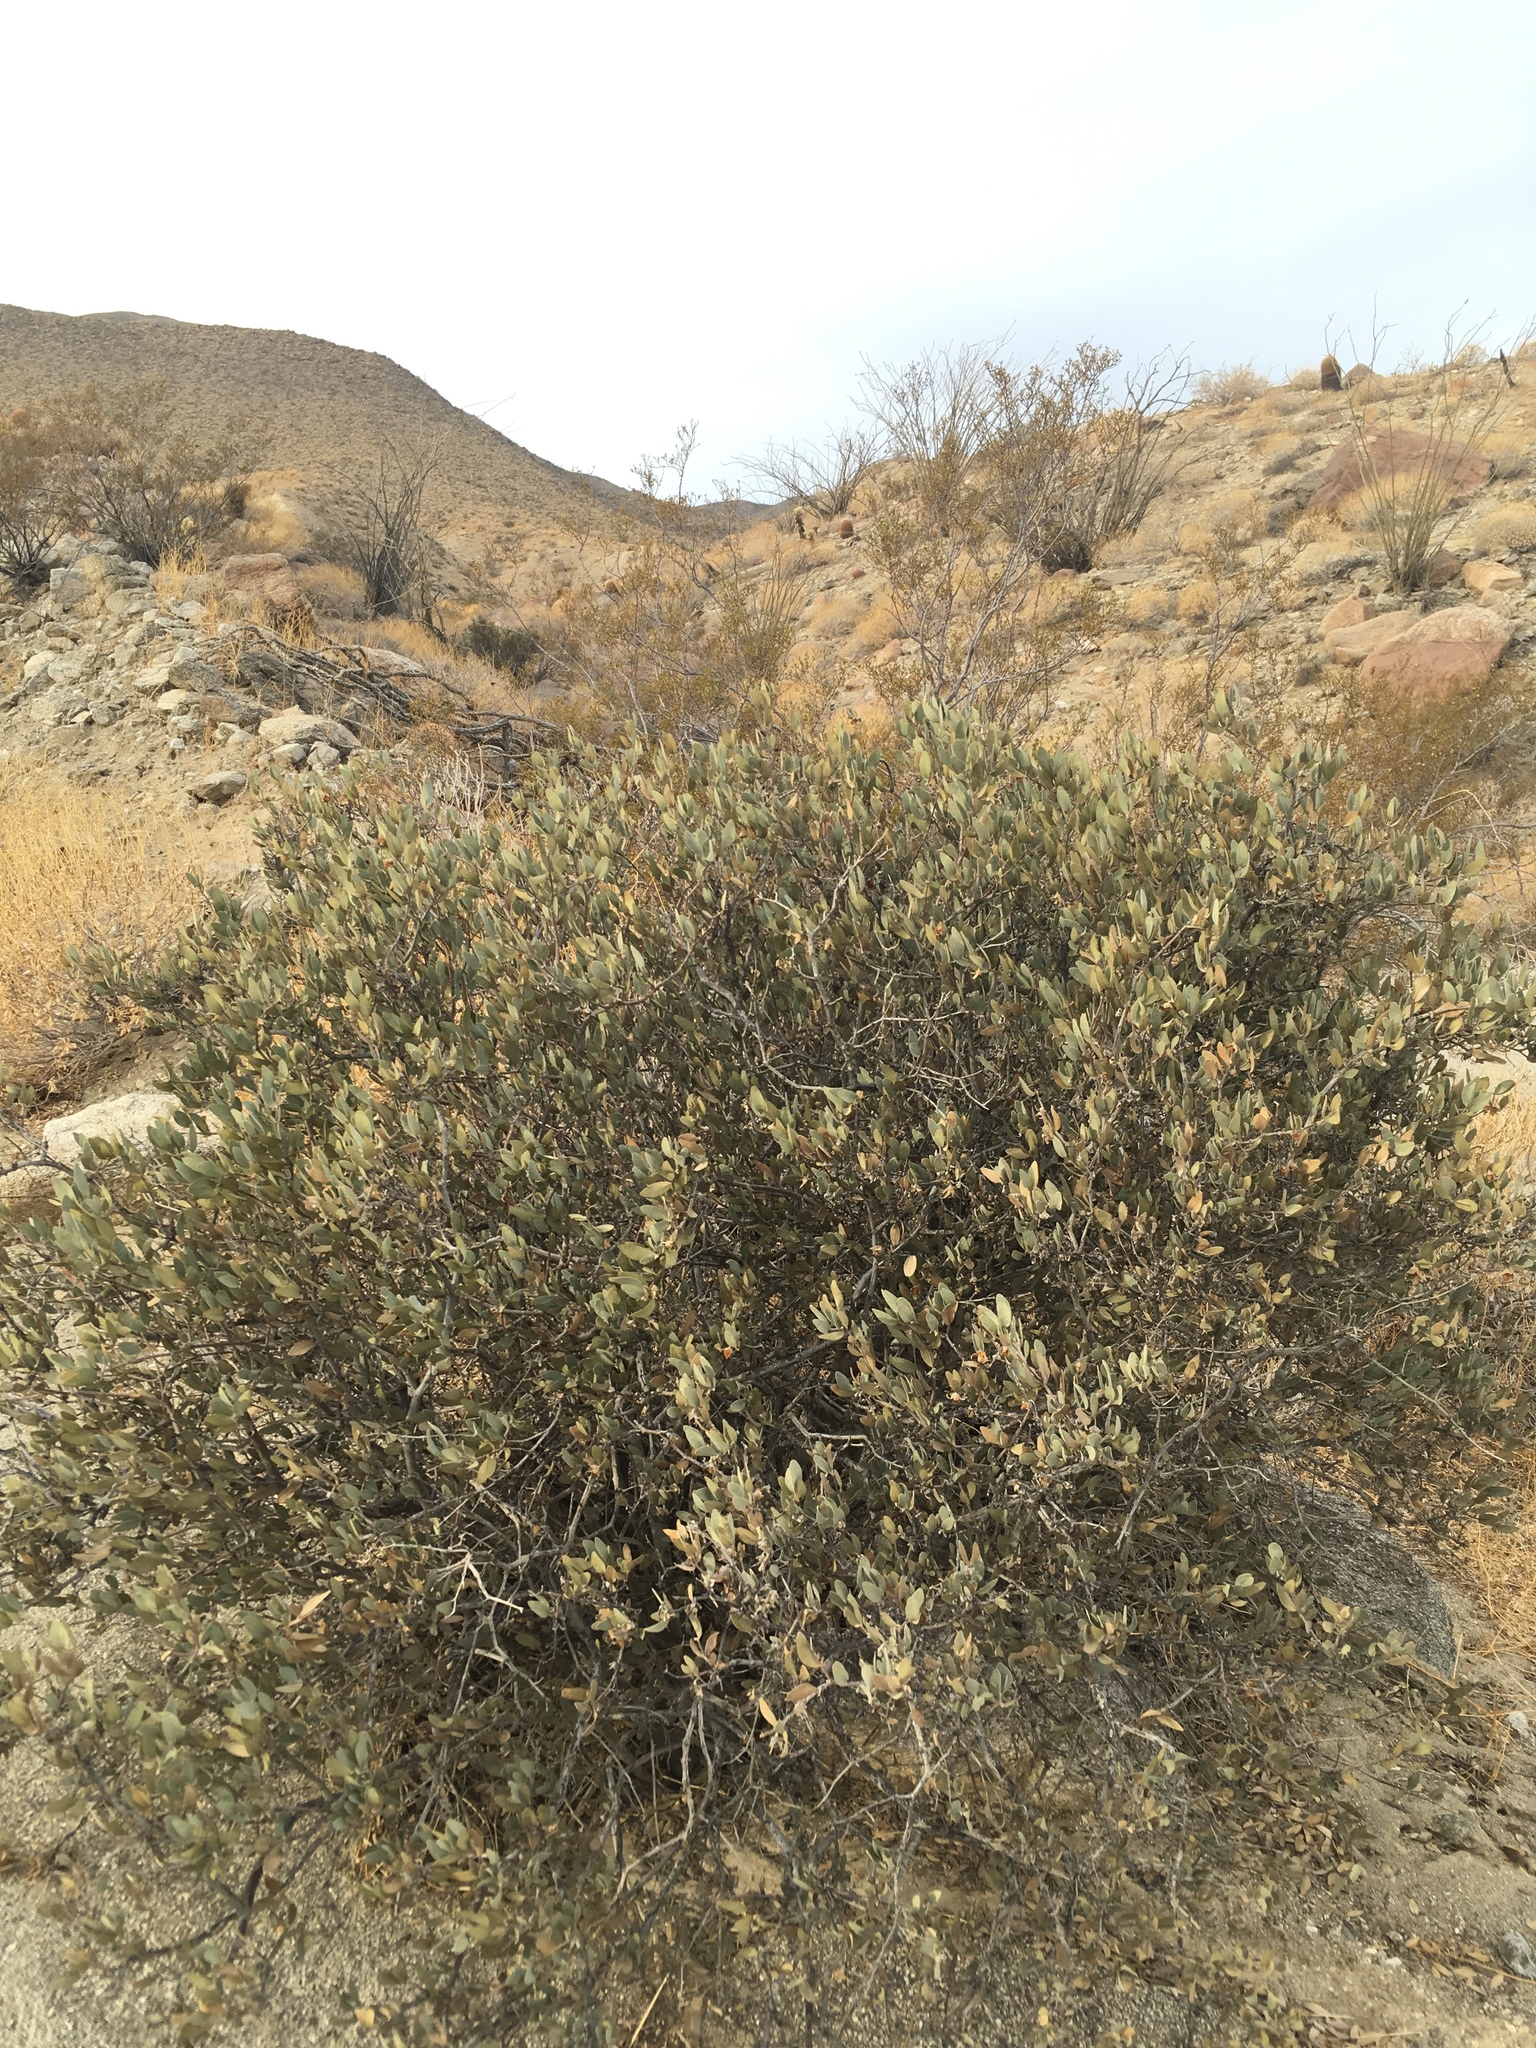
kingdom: Plantae
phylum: Tracheophyta
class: Magnoliopsida
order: Caryophyllales
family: Simmondsiaceae
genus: Simmondsia
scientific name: Simmondsia chinensis
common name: Jojoba
